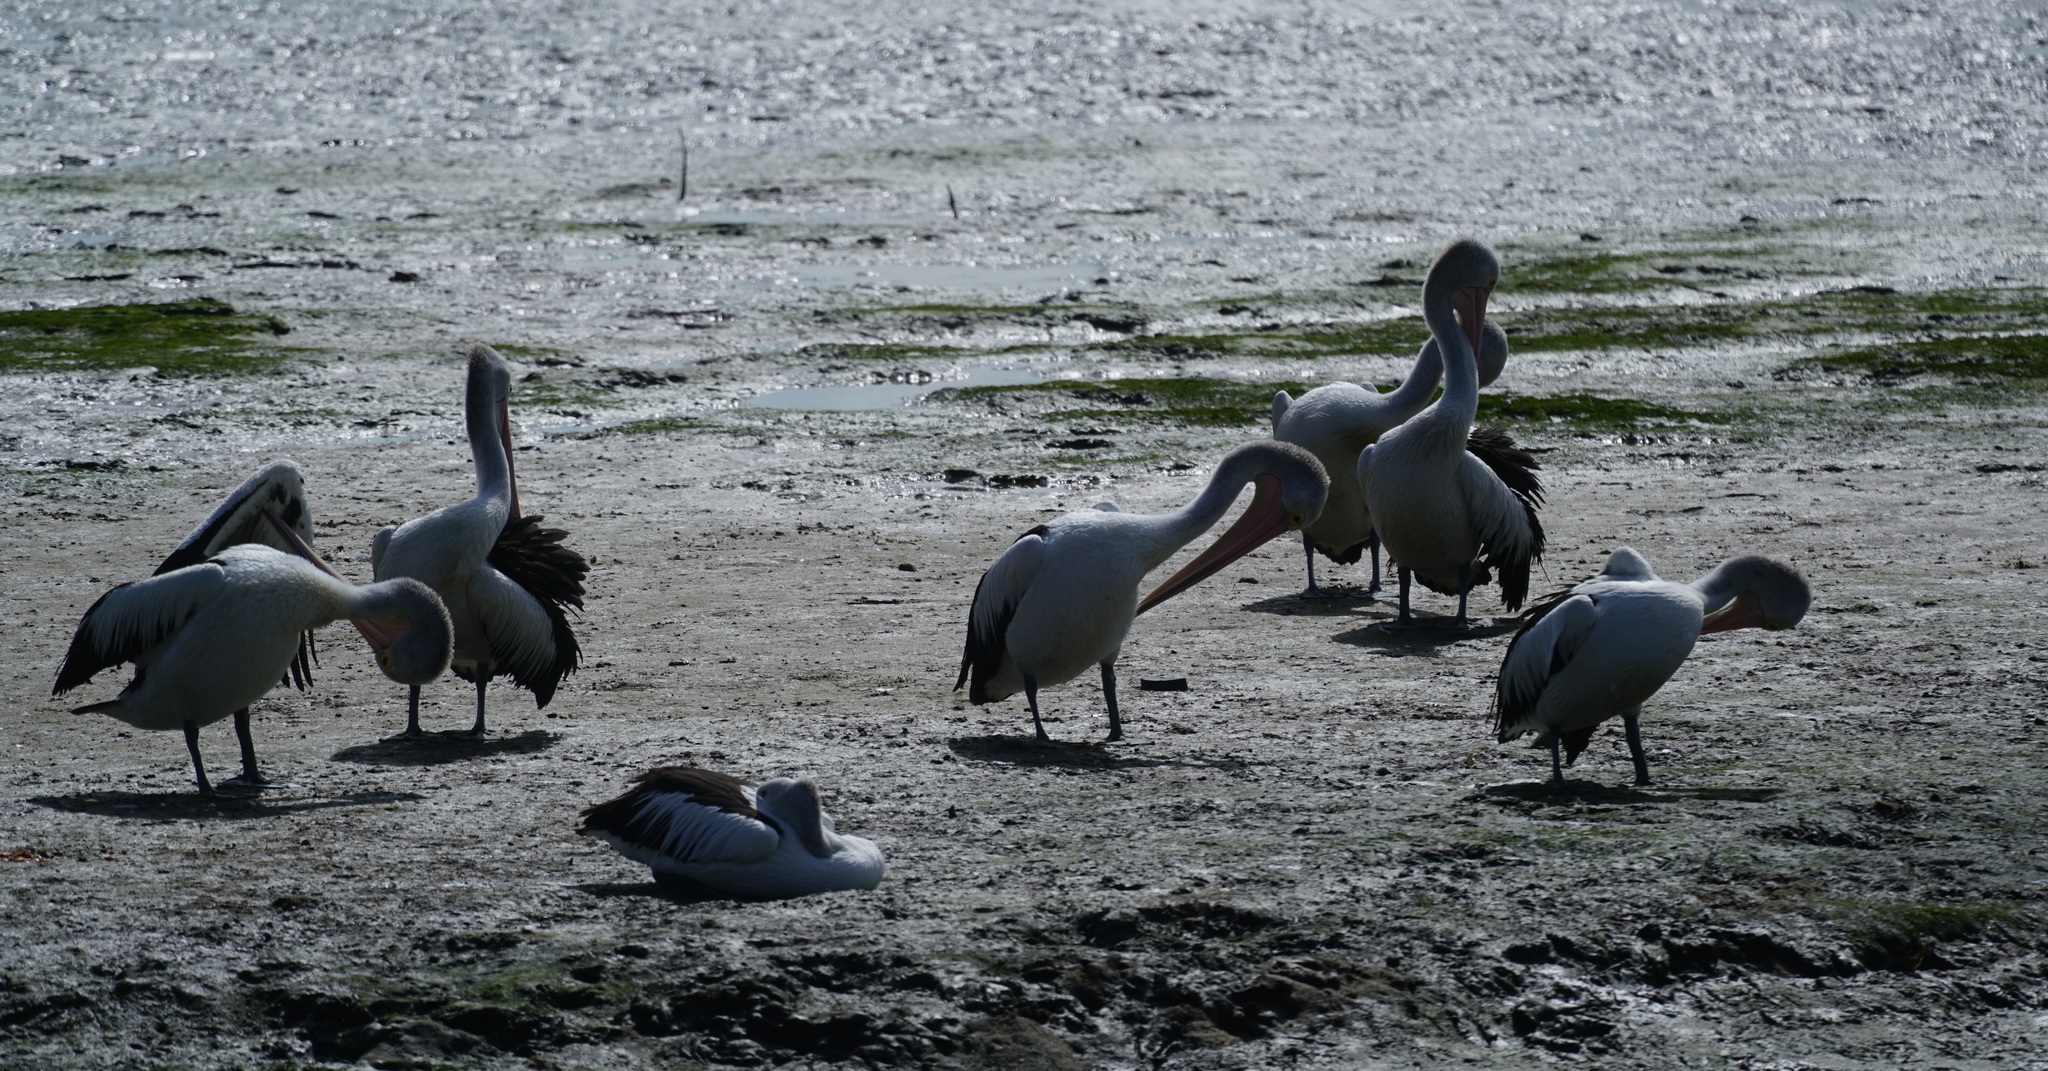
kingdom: Animalia
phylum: Chordata
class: Aves
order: Pelecaniformes
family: Pelecanidae
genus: Pelecanus
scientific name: Pelecanus conspicillatus
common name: Australian pelican
